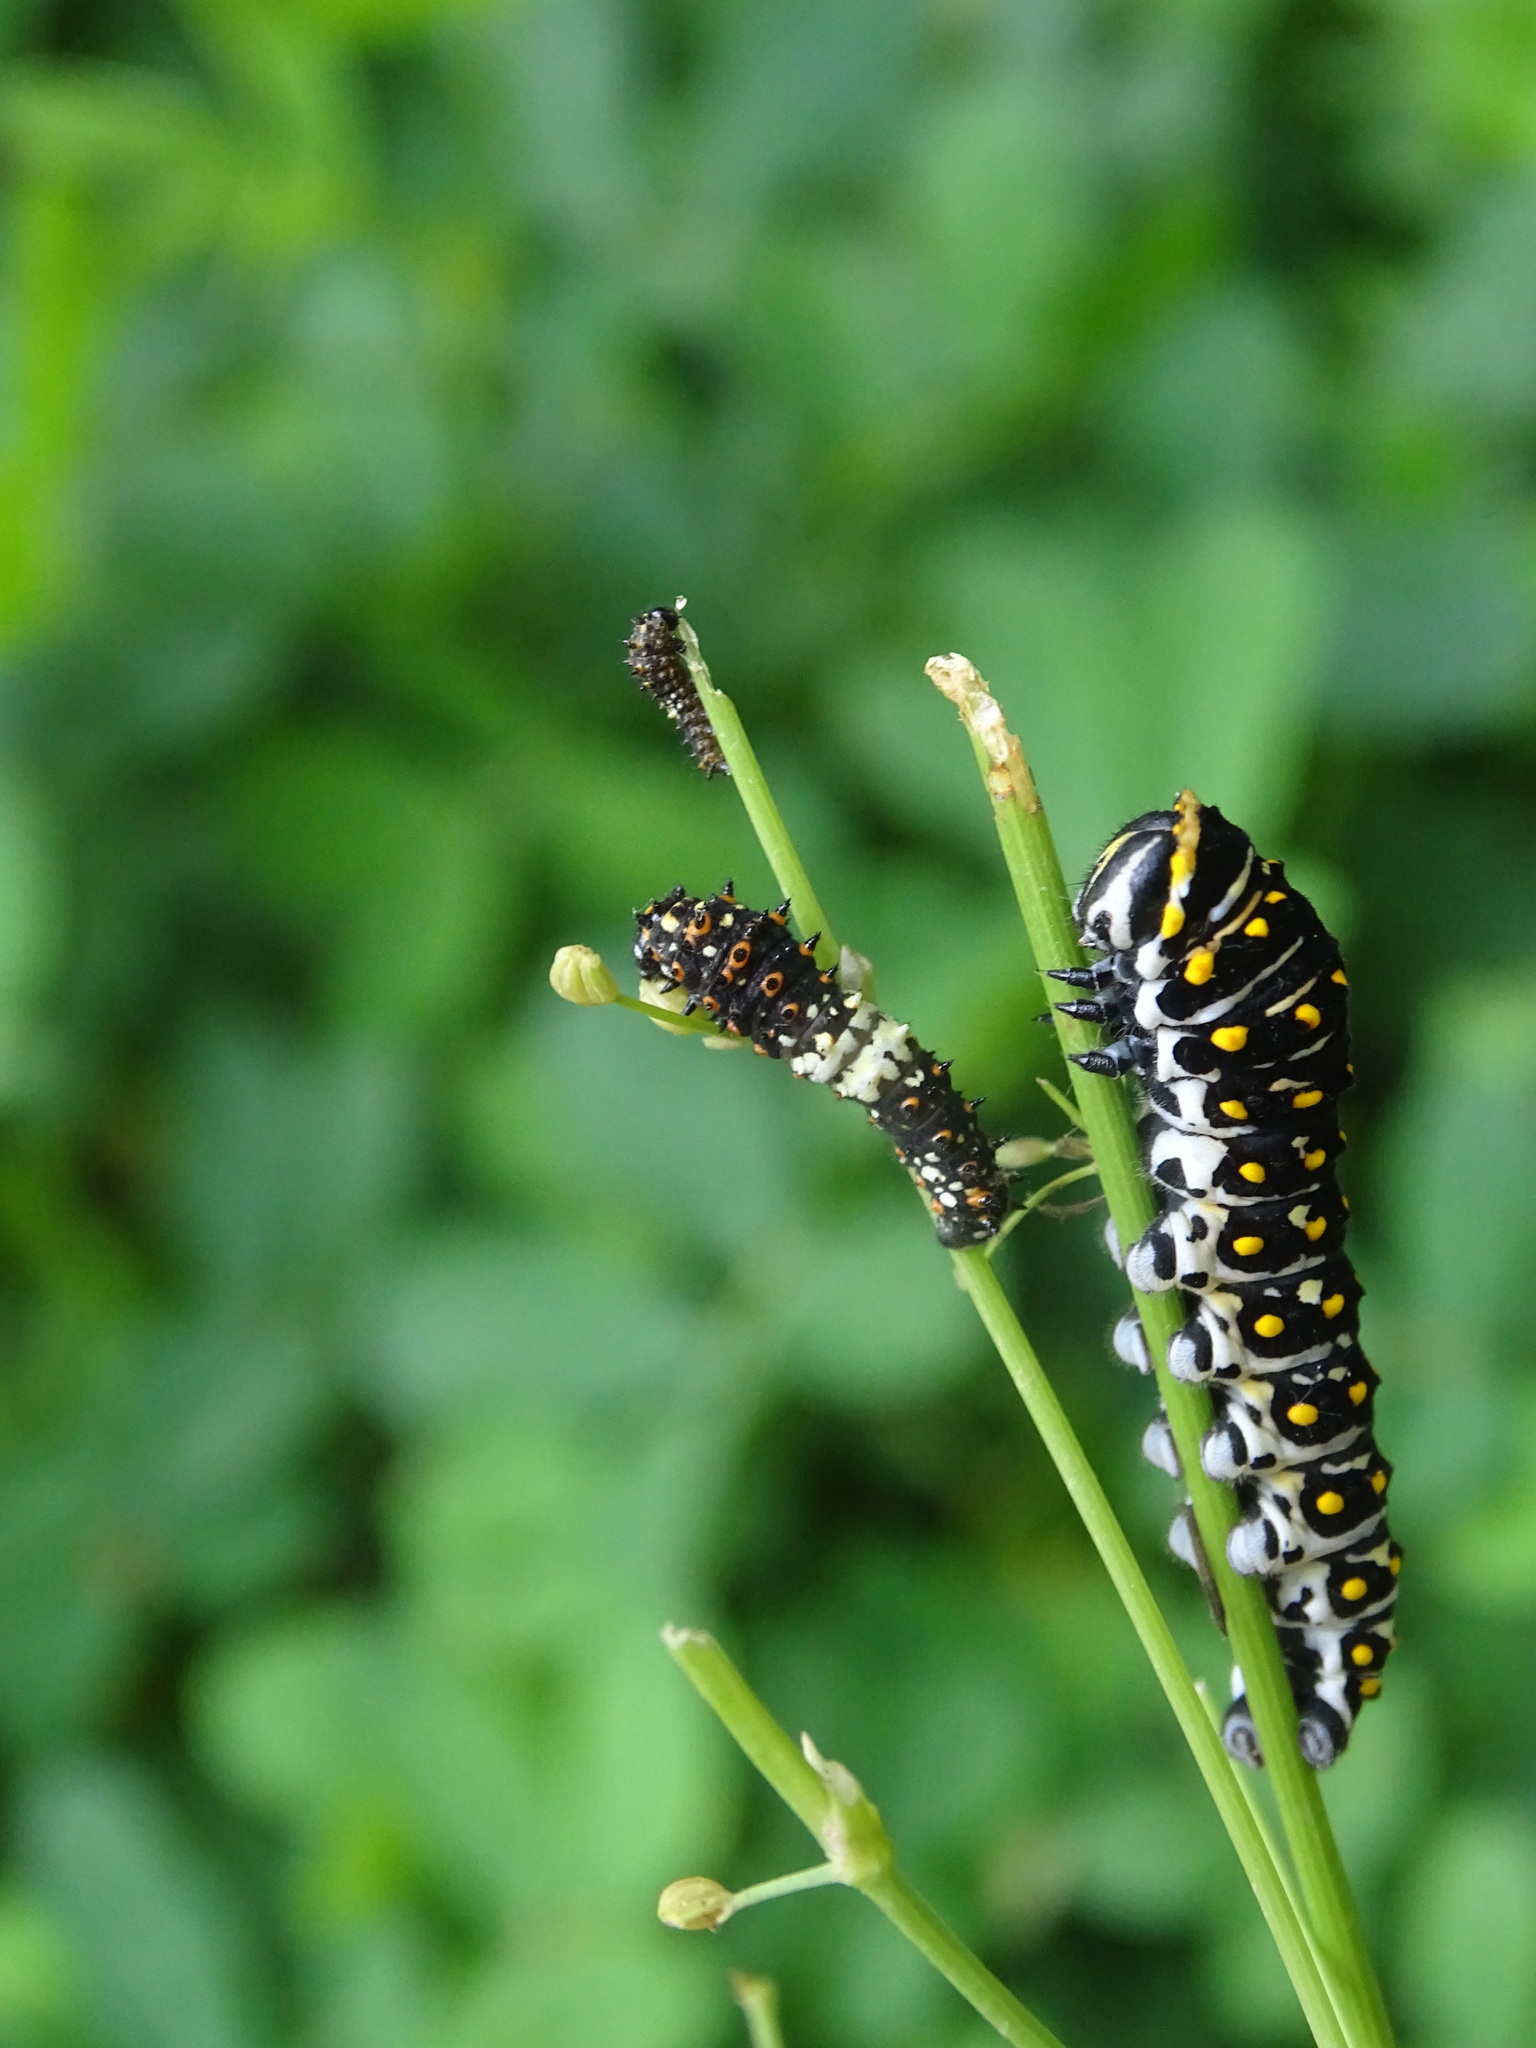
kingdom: Animalia
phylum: Arthropoda
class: Insecta
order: Lepidoptera
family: Papilionidae
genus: Papilio
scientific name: Papilio polyxenes
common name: Black swallowtail
